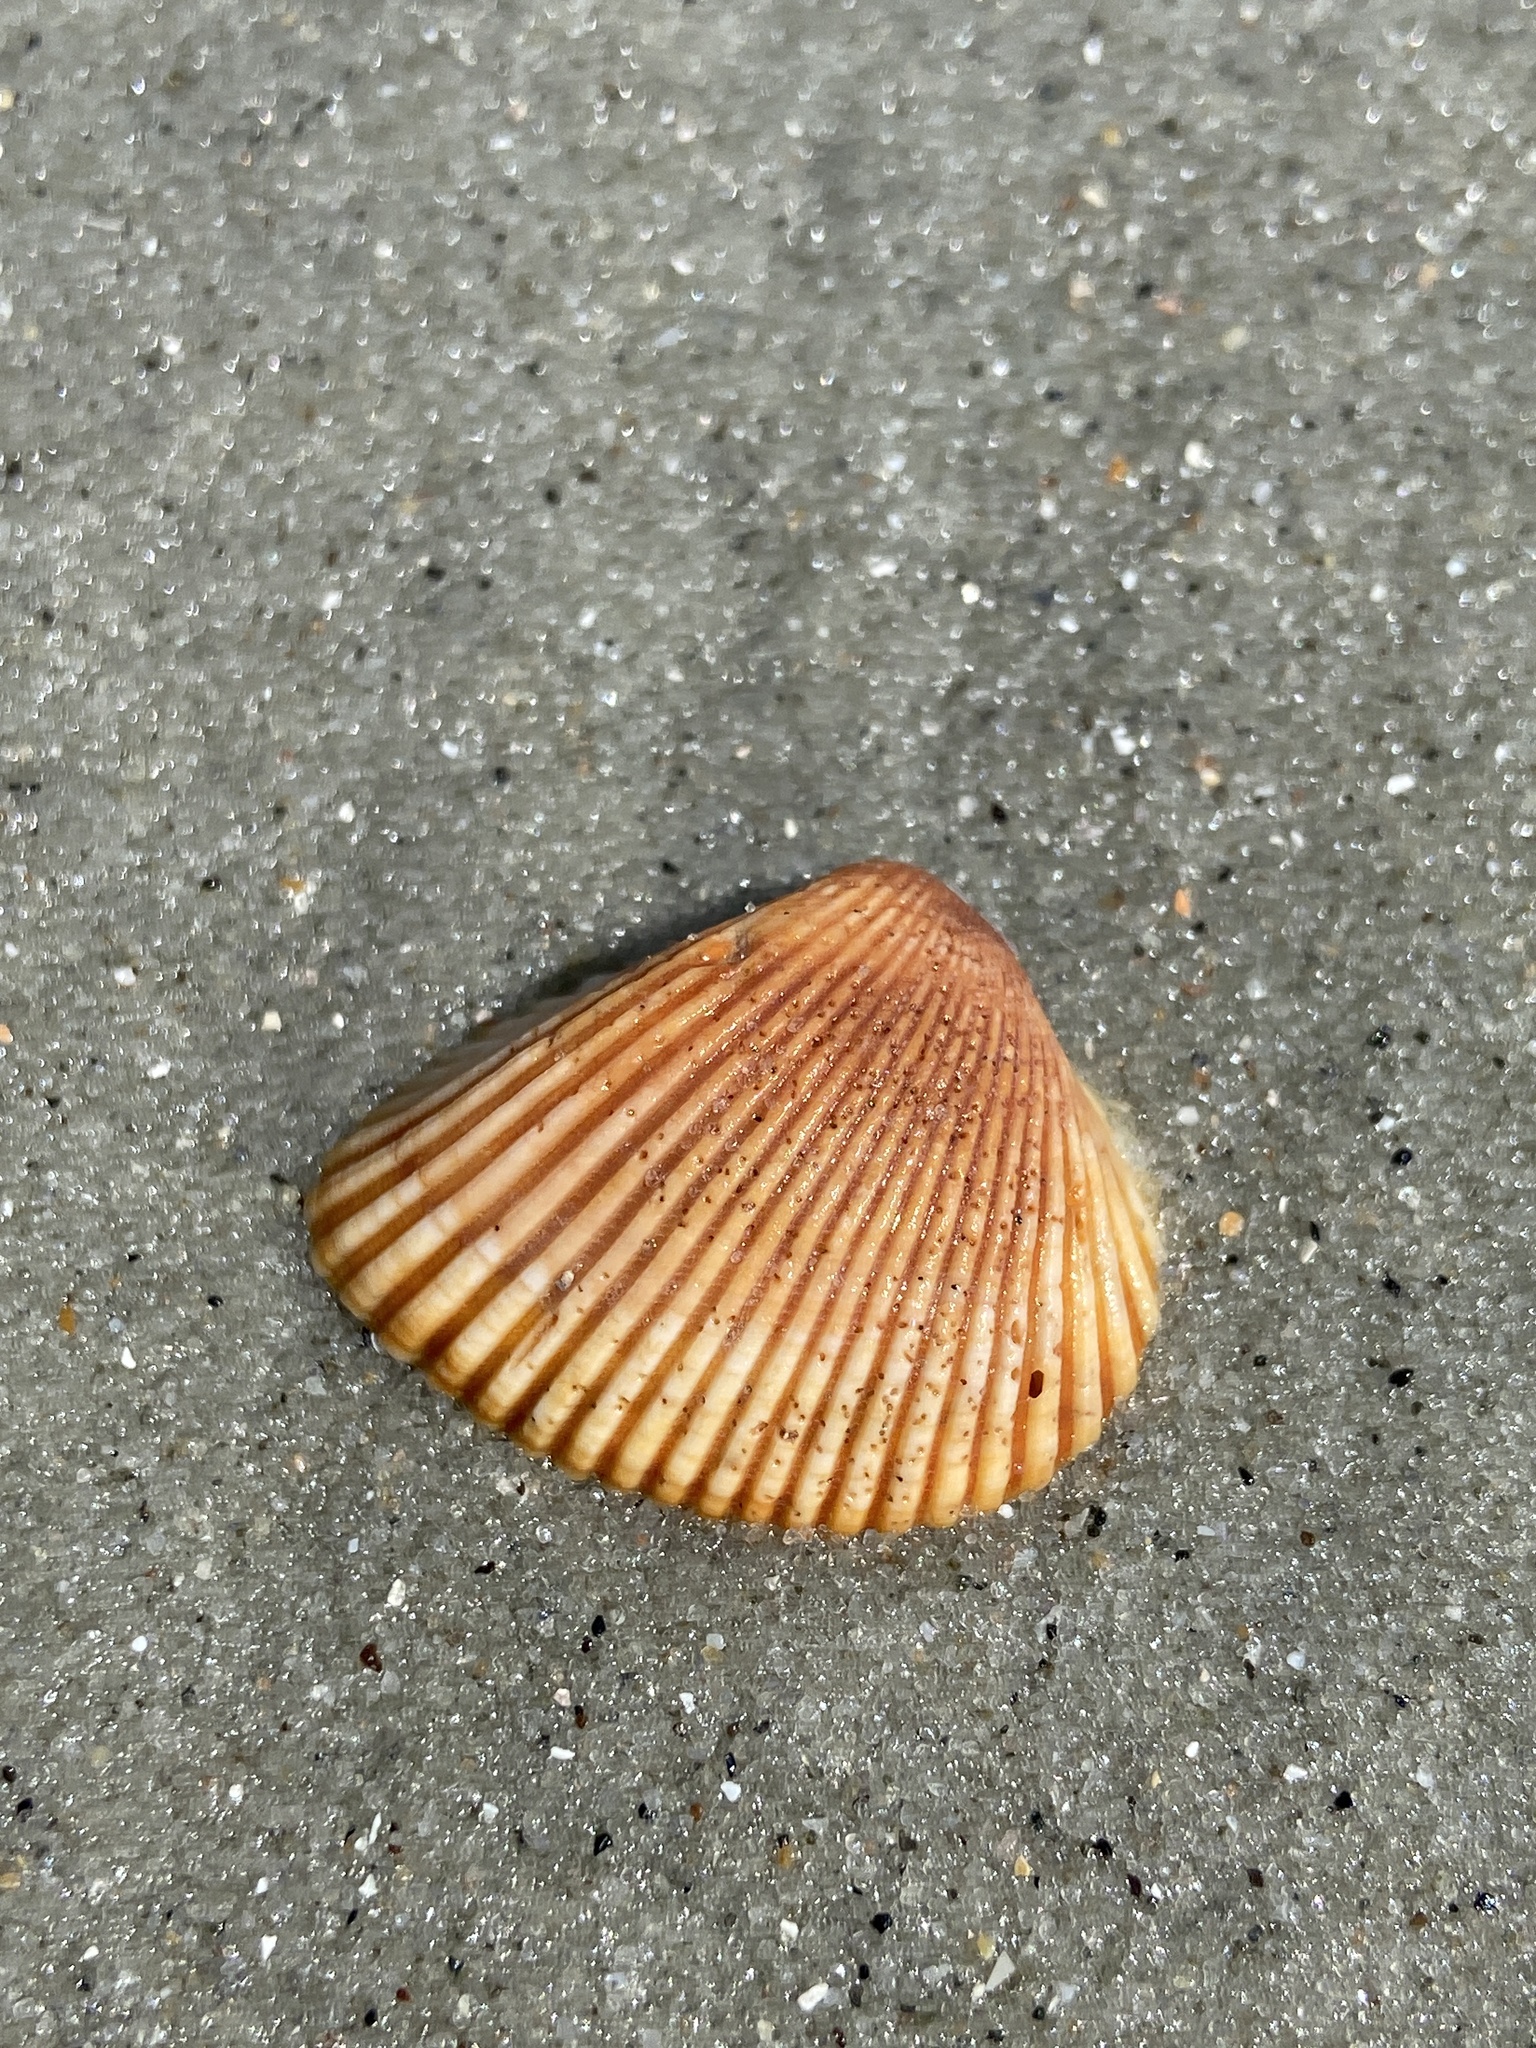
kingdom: Animalia
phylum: Mollusca
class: Bivalvia
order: Arcida
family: Noetiidae
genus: Noetia
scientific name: Noetia ponderosa
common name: Ponderous ark
